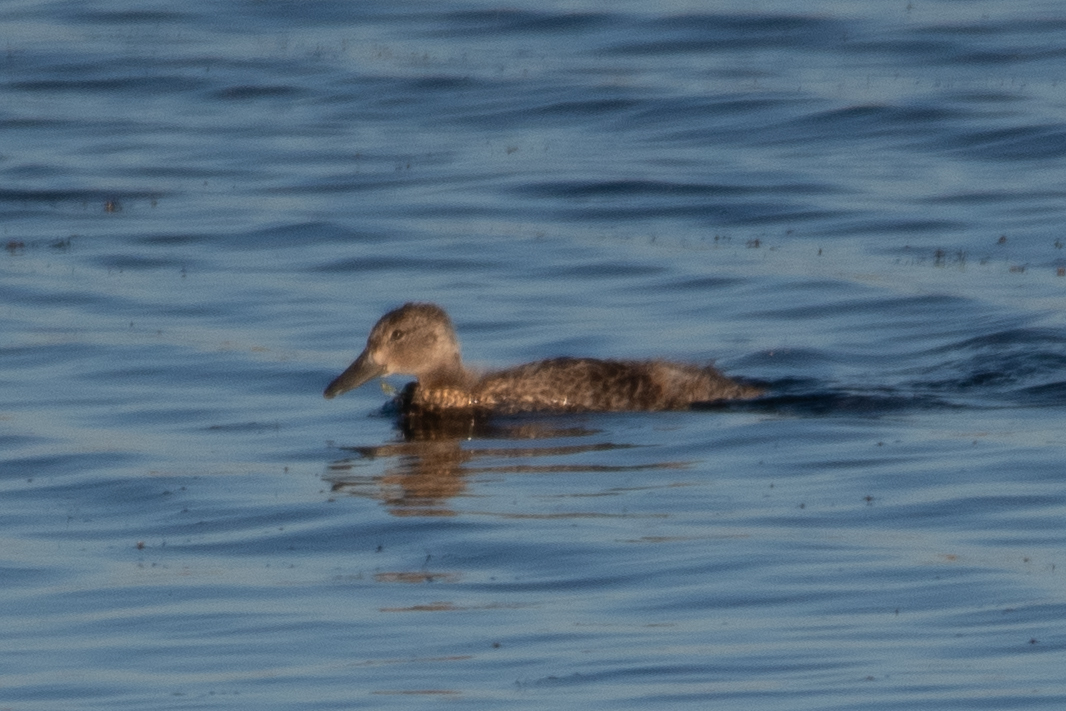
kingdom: Animalia
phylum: Chordata
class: Aves
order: Anseriformes
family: Anatidae
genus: Anas
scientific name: Anas platyrhynchos
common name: Mallard
